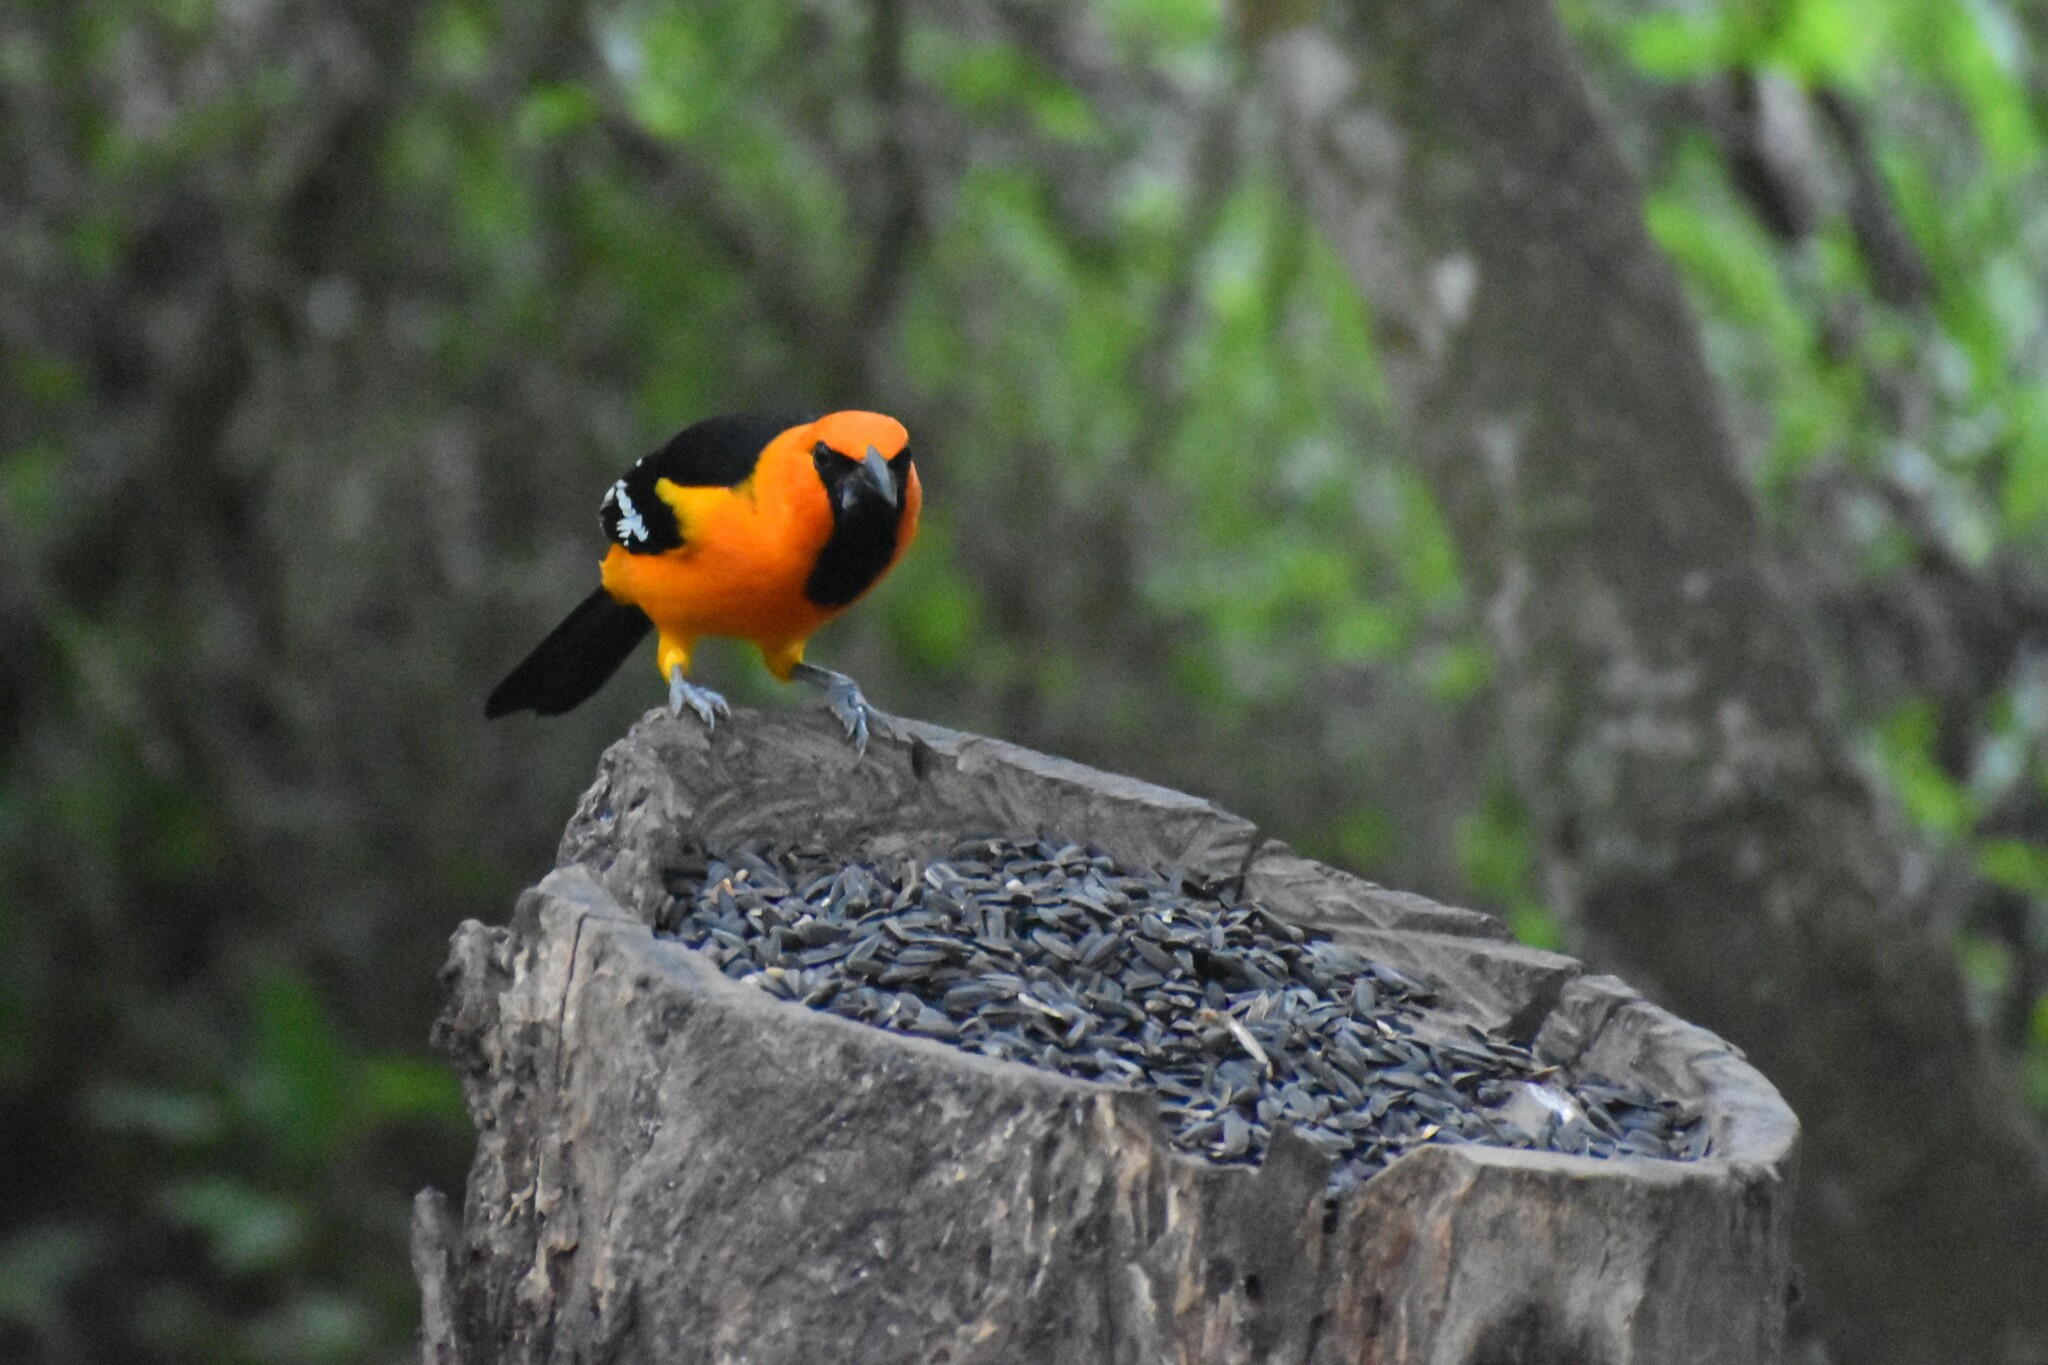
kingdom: Animalia
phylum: Chordata
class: Aves
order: Passeriformes
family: Icteridae
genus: Icterus
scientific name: Icterus gularis
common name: Altamira oriole
